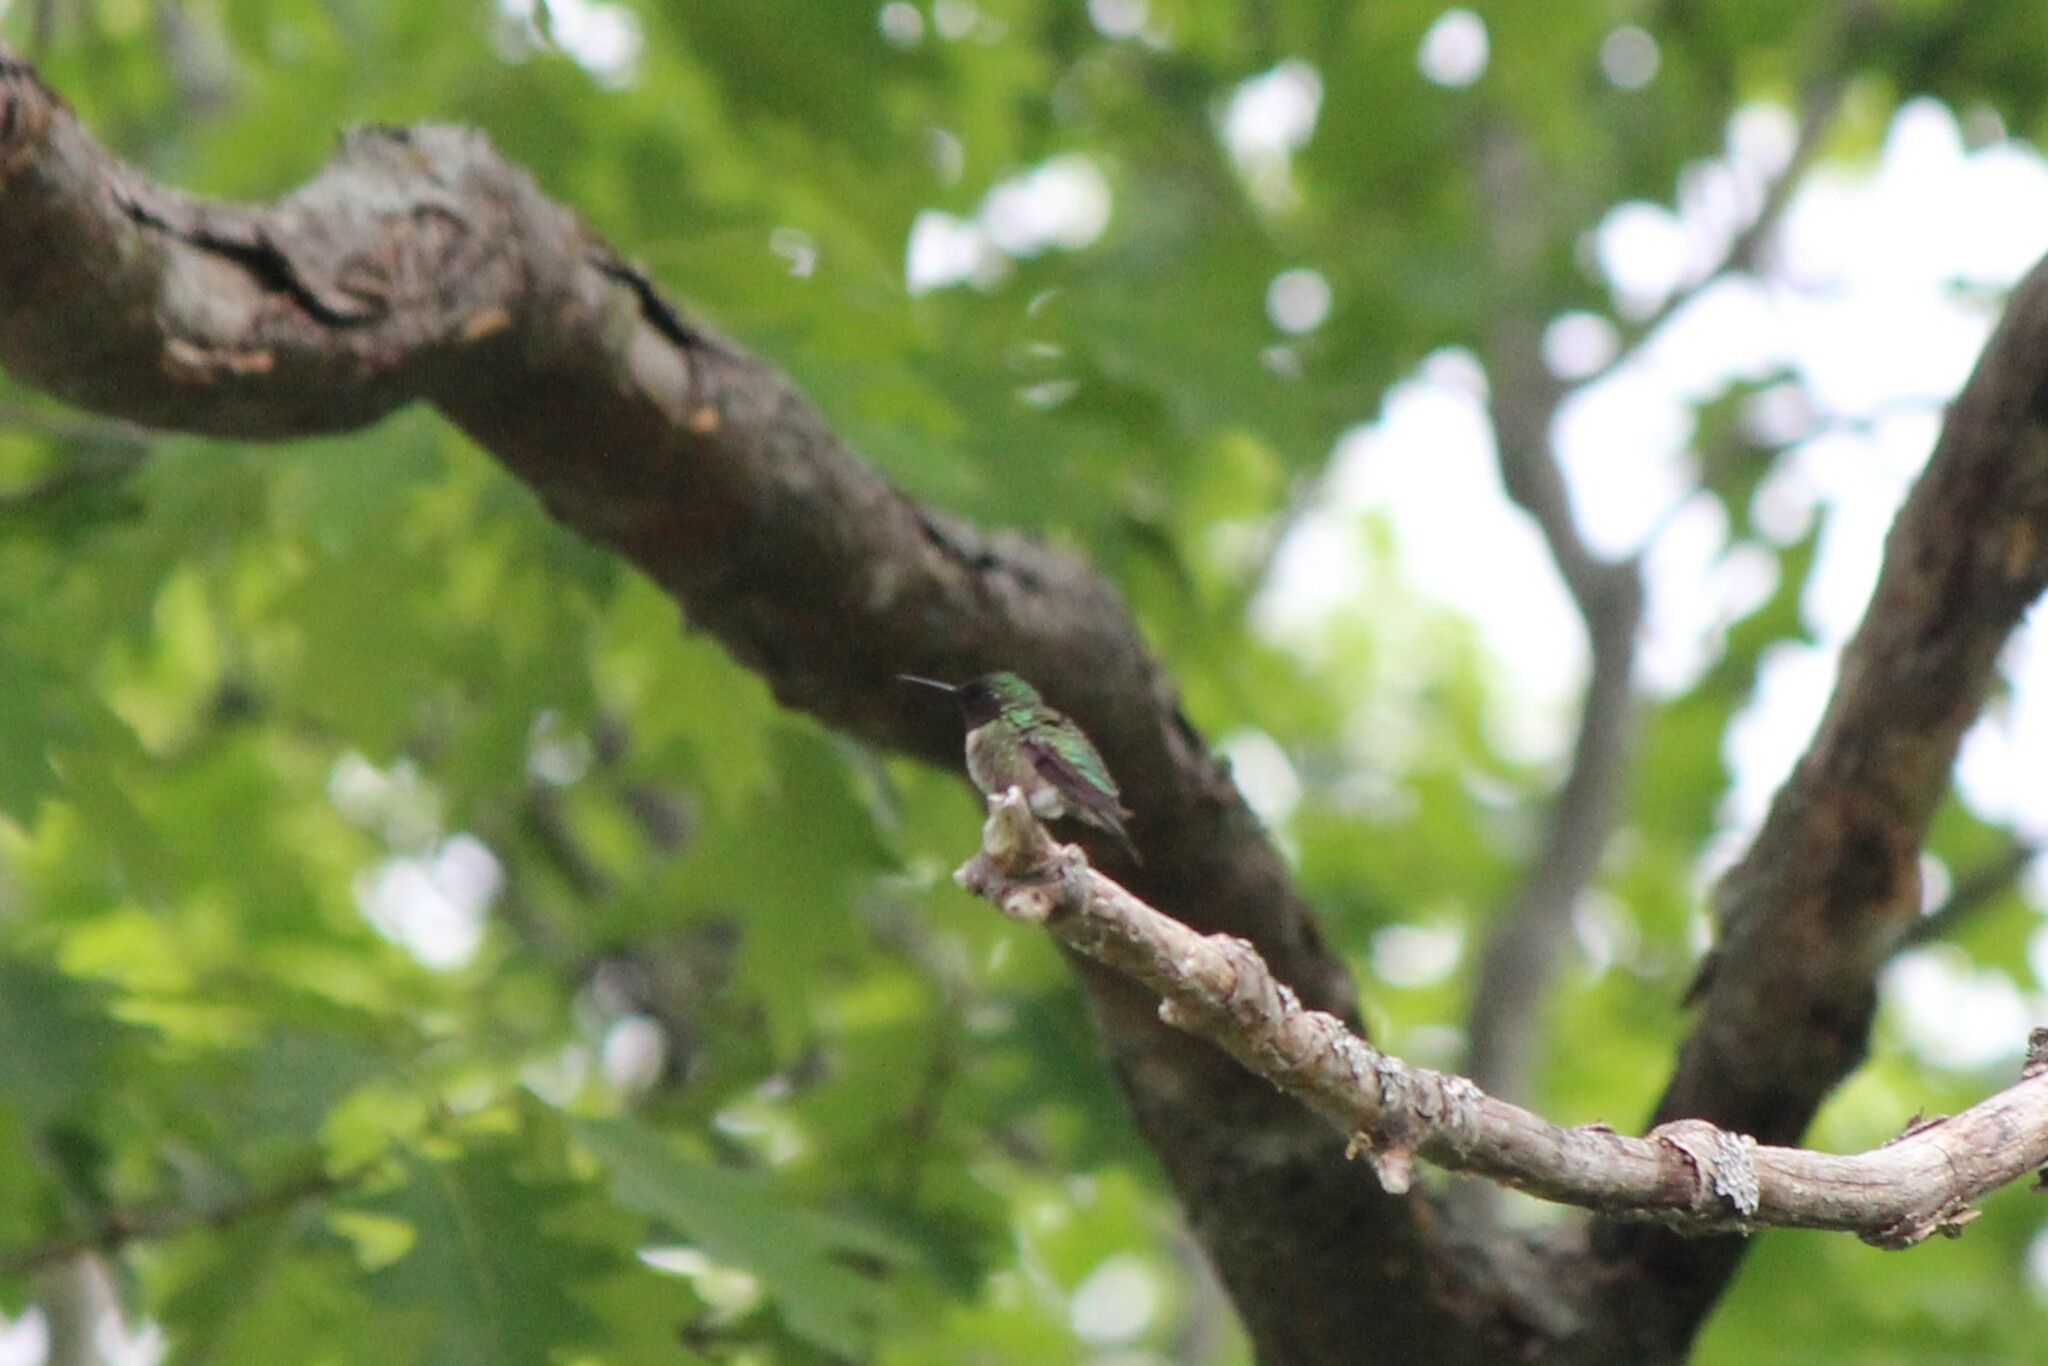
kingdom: Animalia
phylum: Chordata
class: Aves
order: Apodiformes
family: Trochilidae
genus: Archilochus
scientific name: Archilochus colubris
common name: Ruby-throated hummingbird
